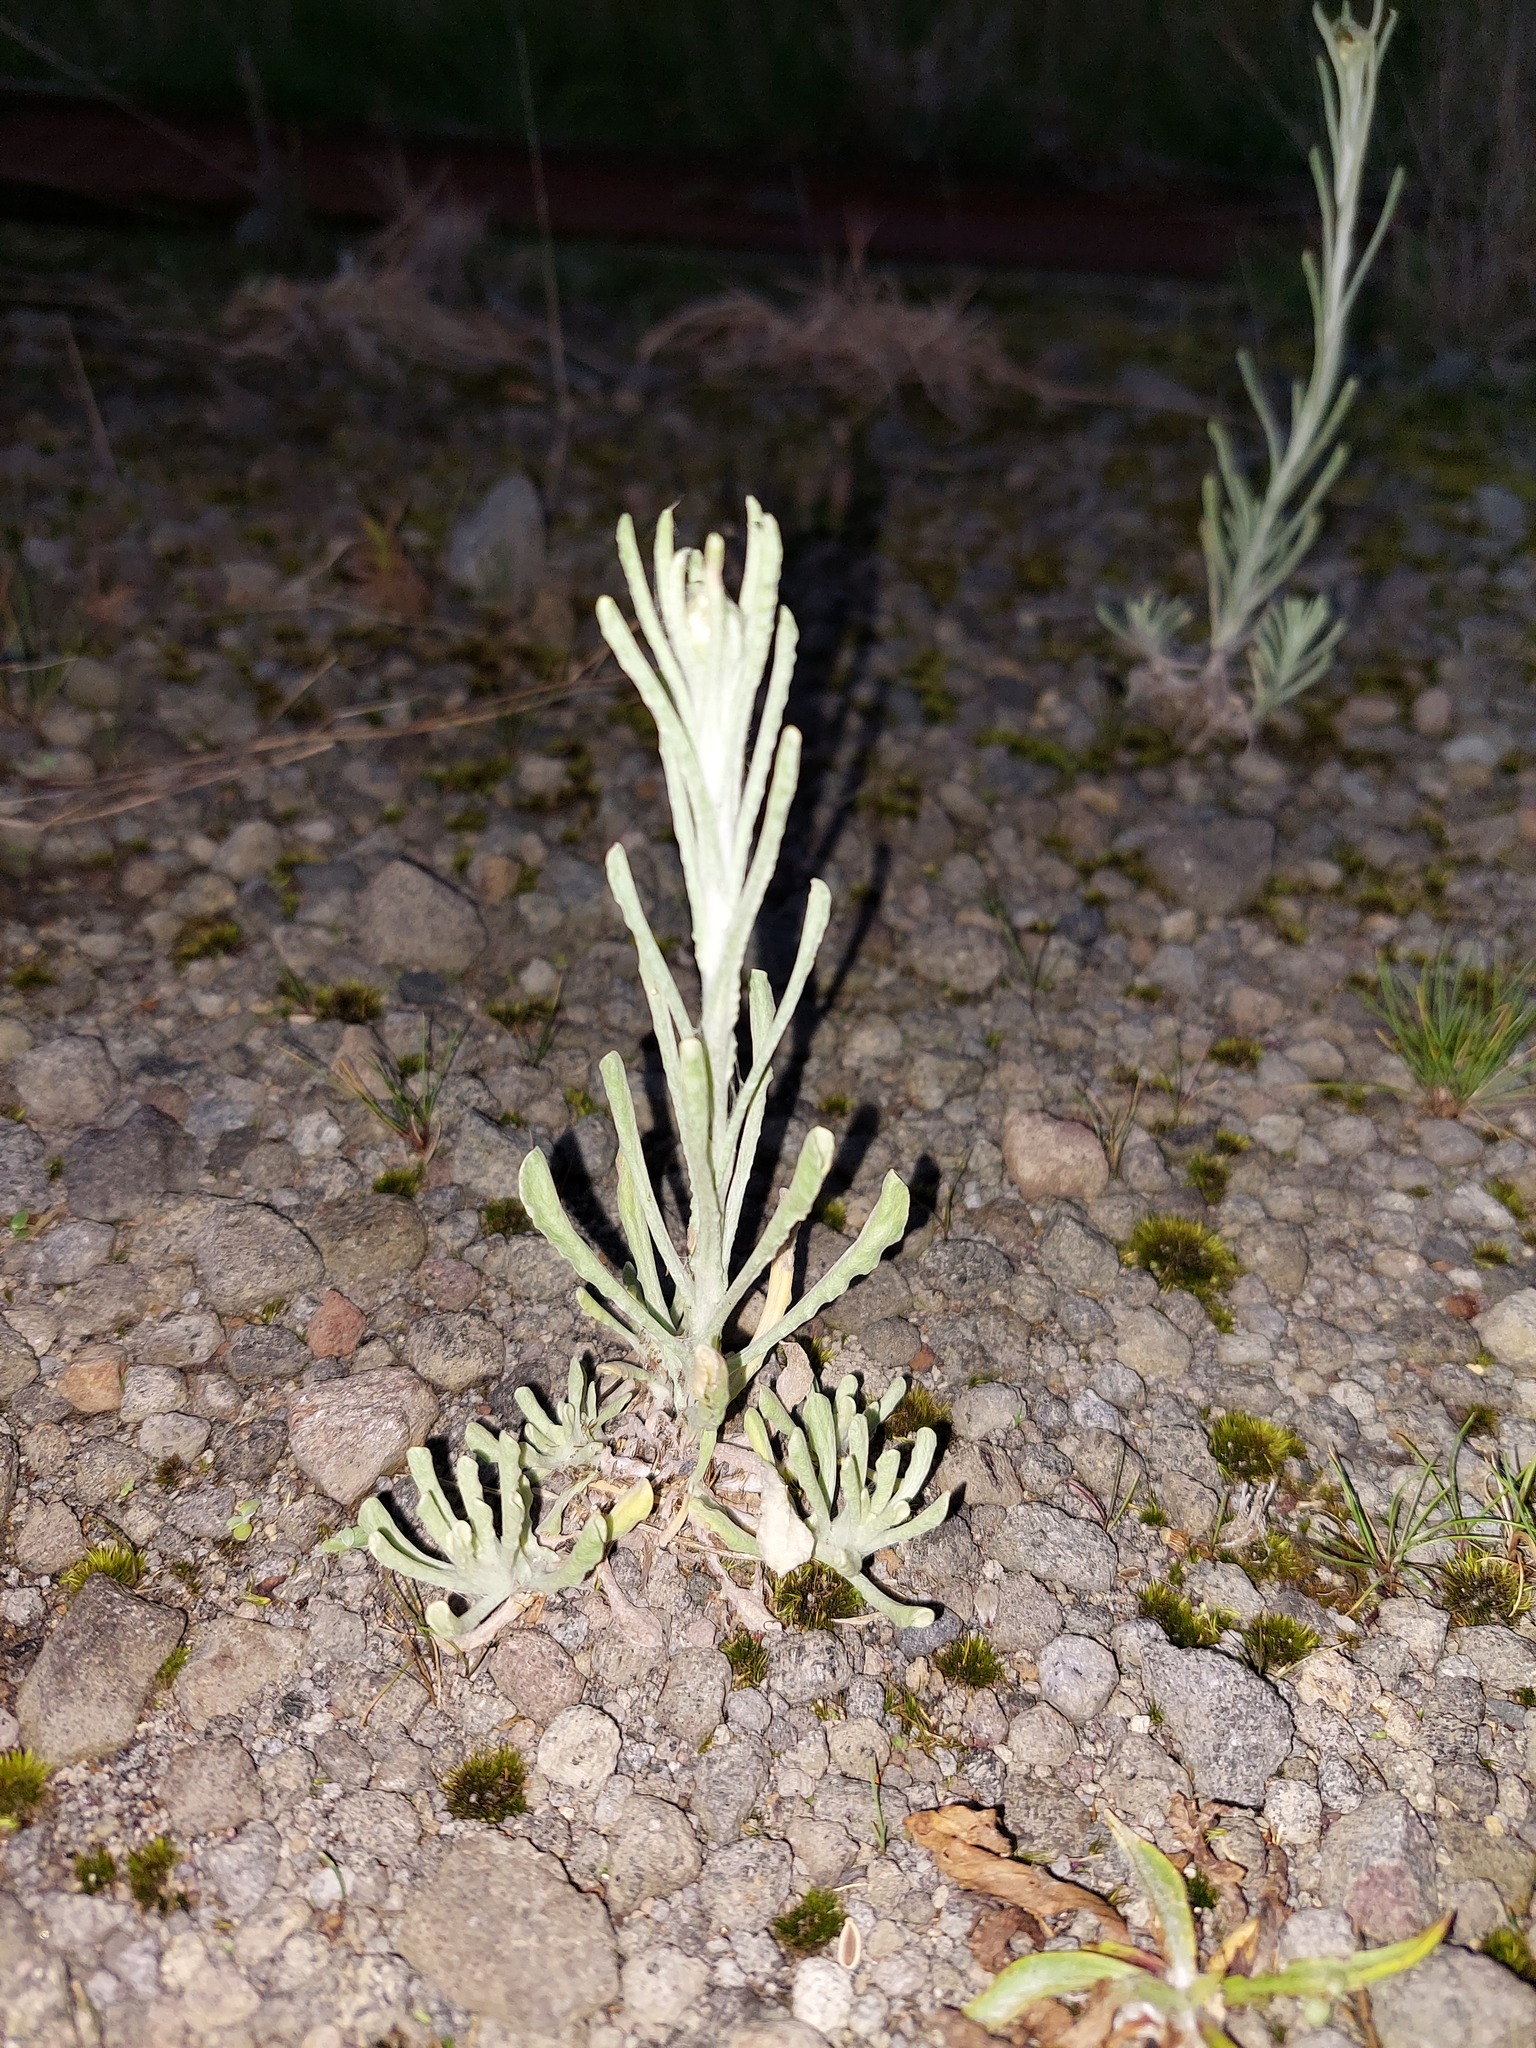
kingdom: Plantae
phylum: Tracheophyta
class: Magnoliopsida
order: Asterales
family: Asteraceae
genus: Helichrysum
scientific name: Helichrysum luteoalbum
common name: Daisy
